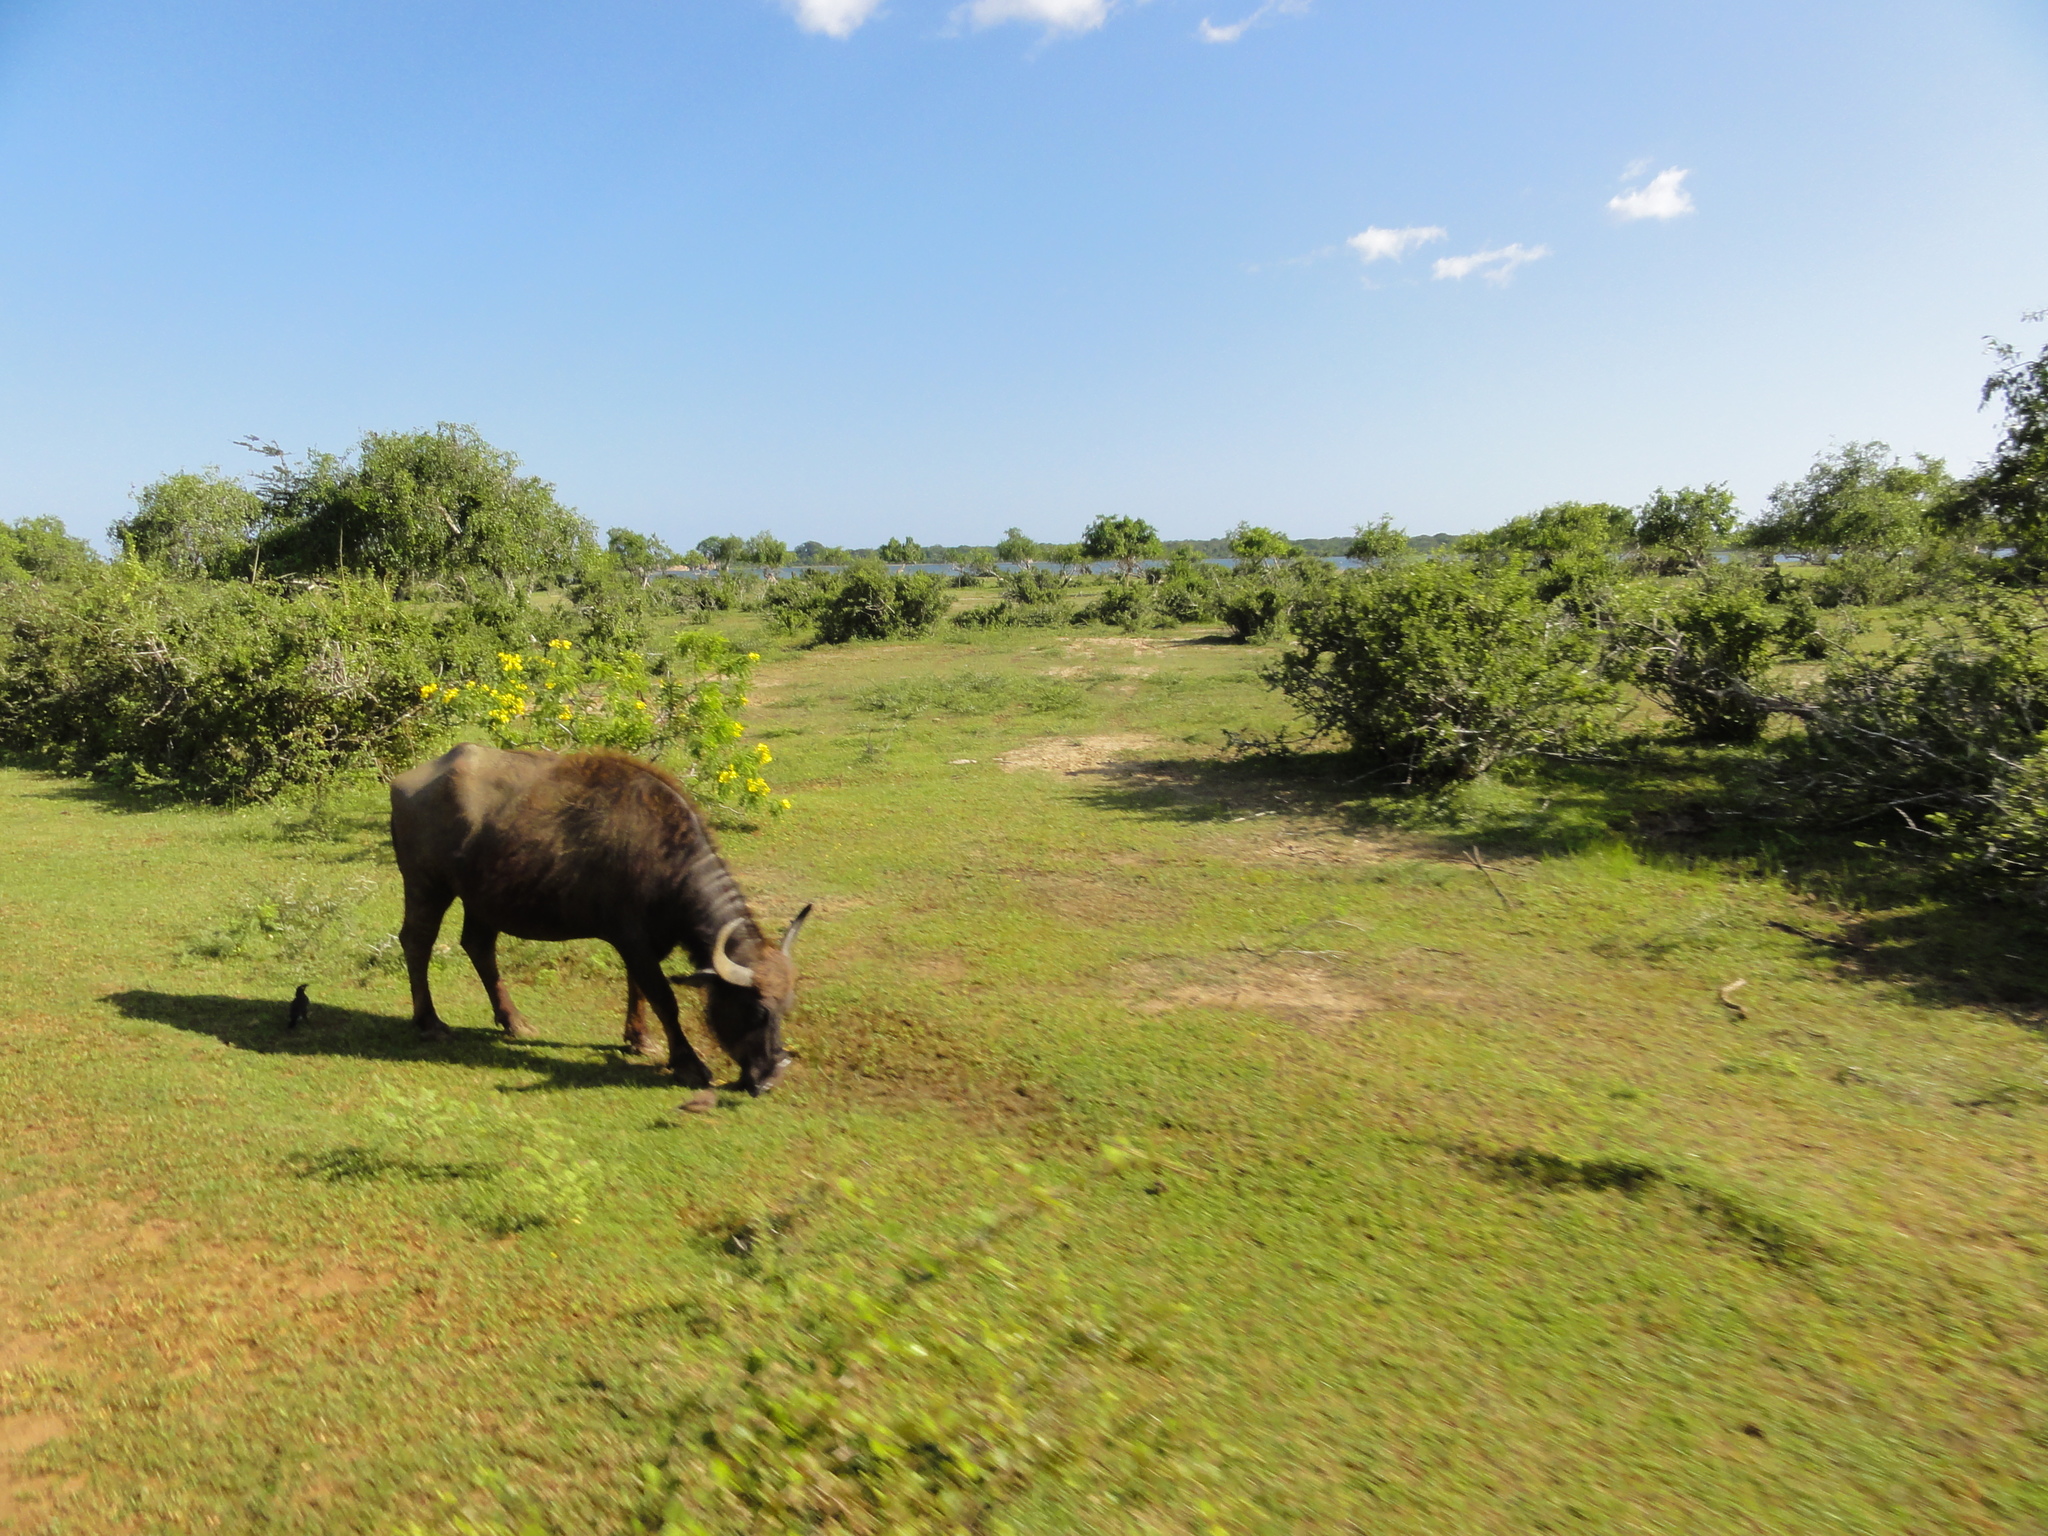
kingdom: Animalia
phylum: Chordata
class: Mammalia
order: Artiodactyla
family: Bovidae
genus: Bubalus
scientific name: Bubalus bubalis
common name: Water buffalo
